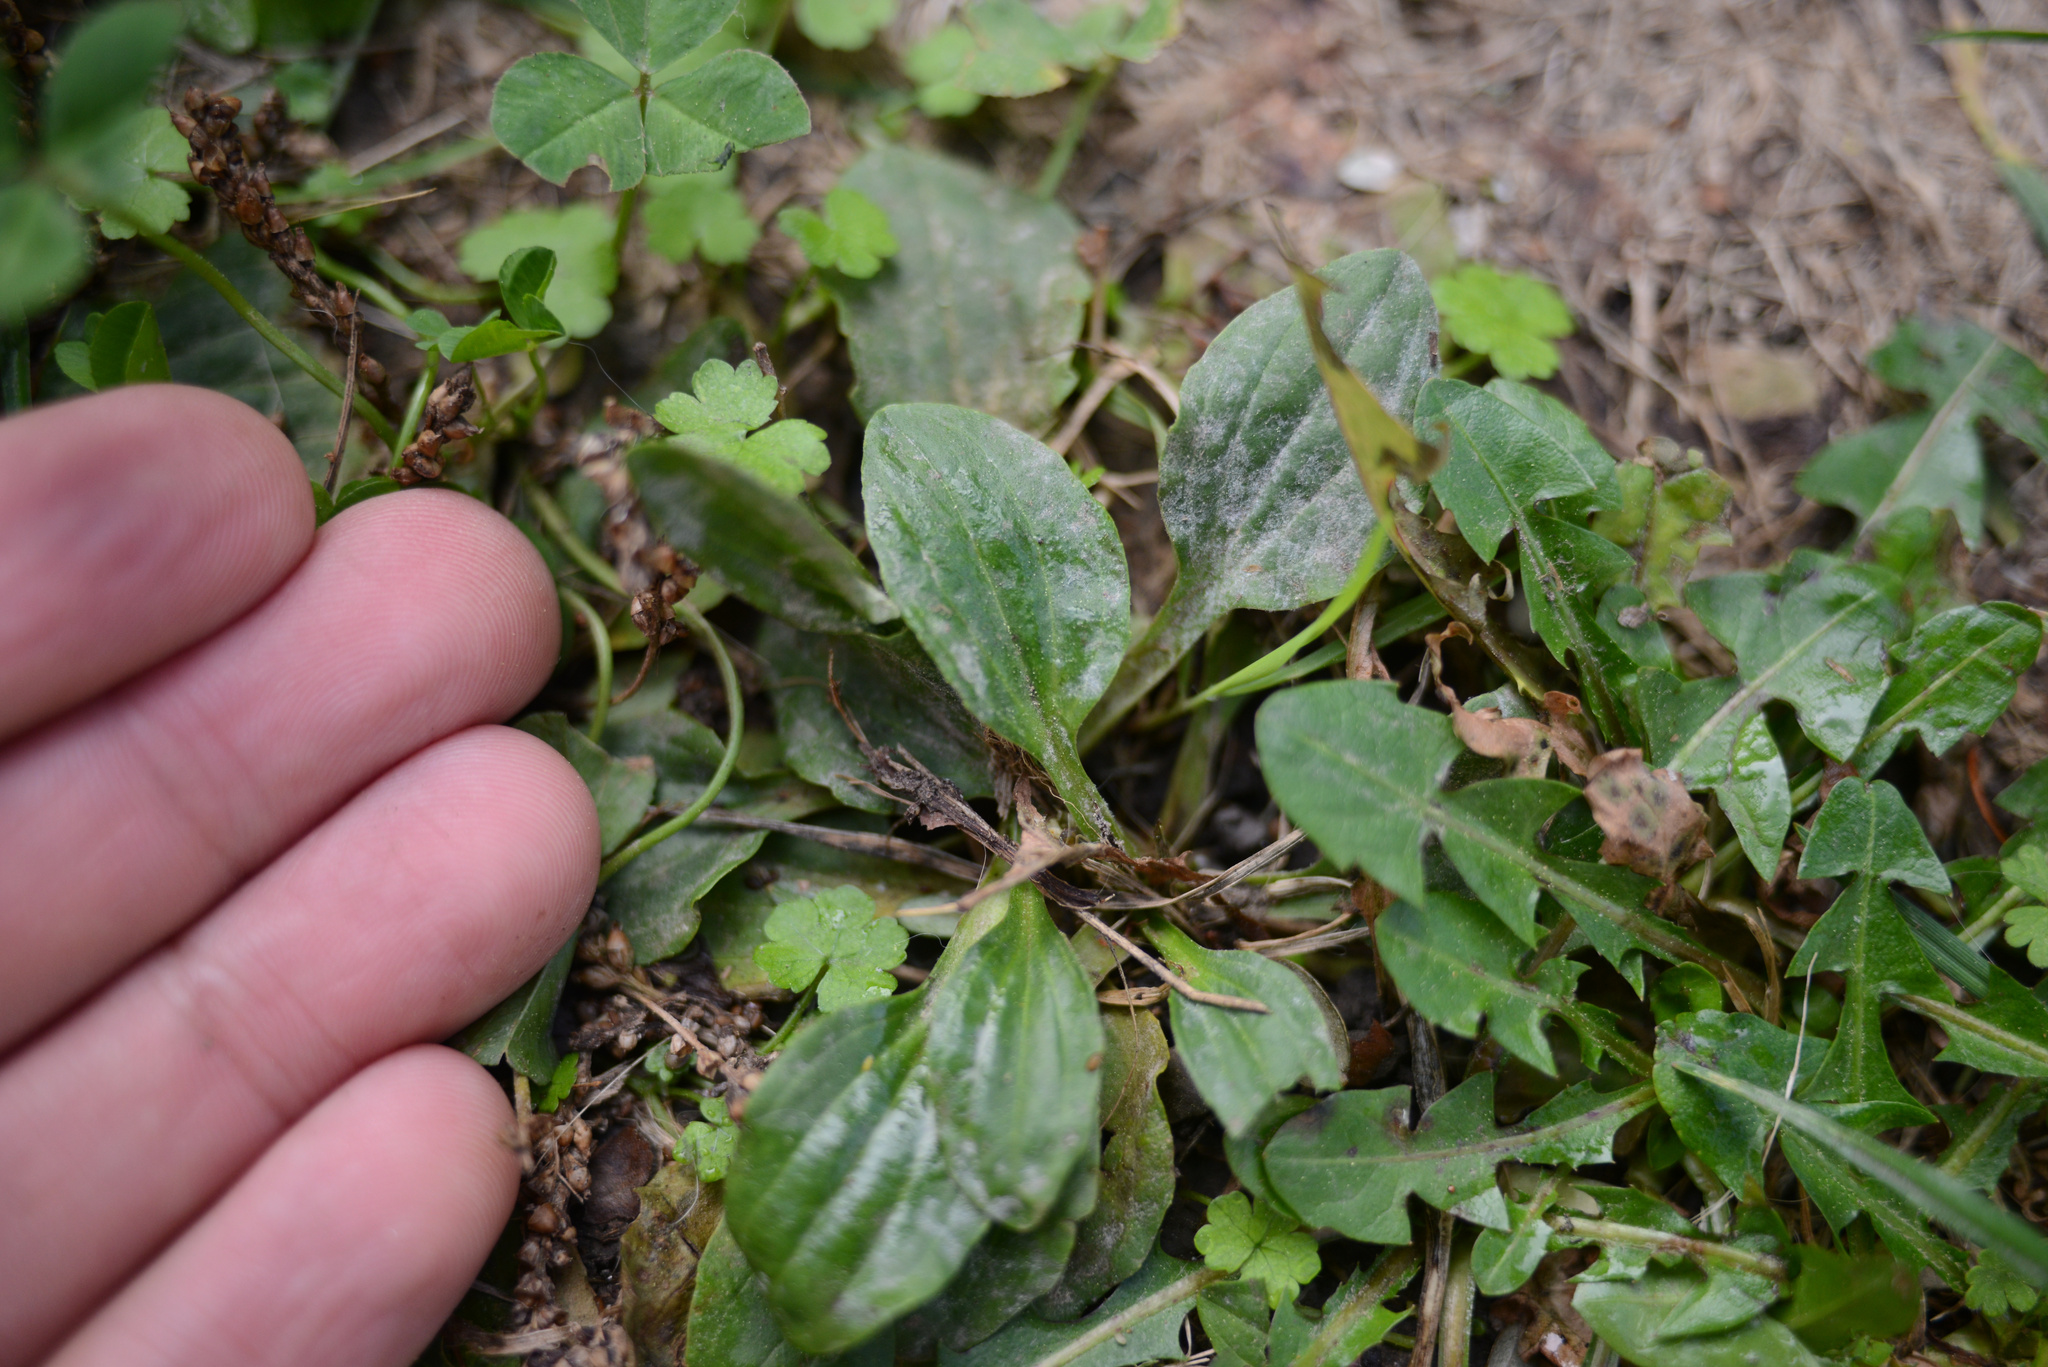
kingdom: Plantae
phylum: Tracheophyta
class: Magnoliopsida
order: Lamiales
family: Plantaginaceae
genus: Plantago
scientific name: Plantago major
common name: Common plantain
